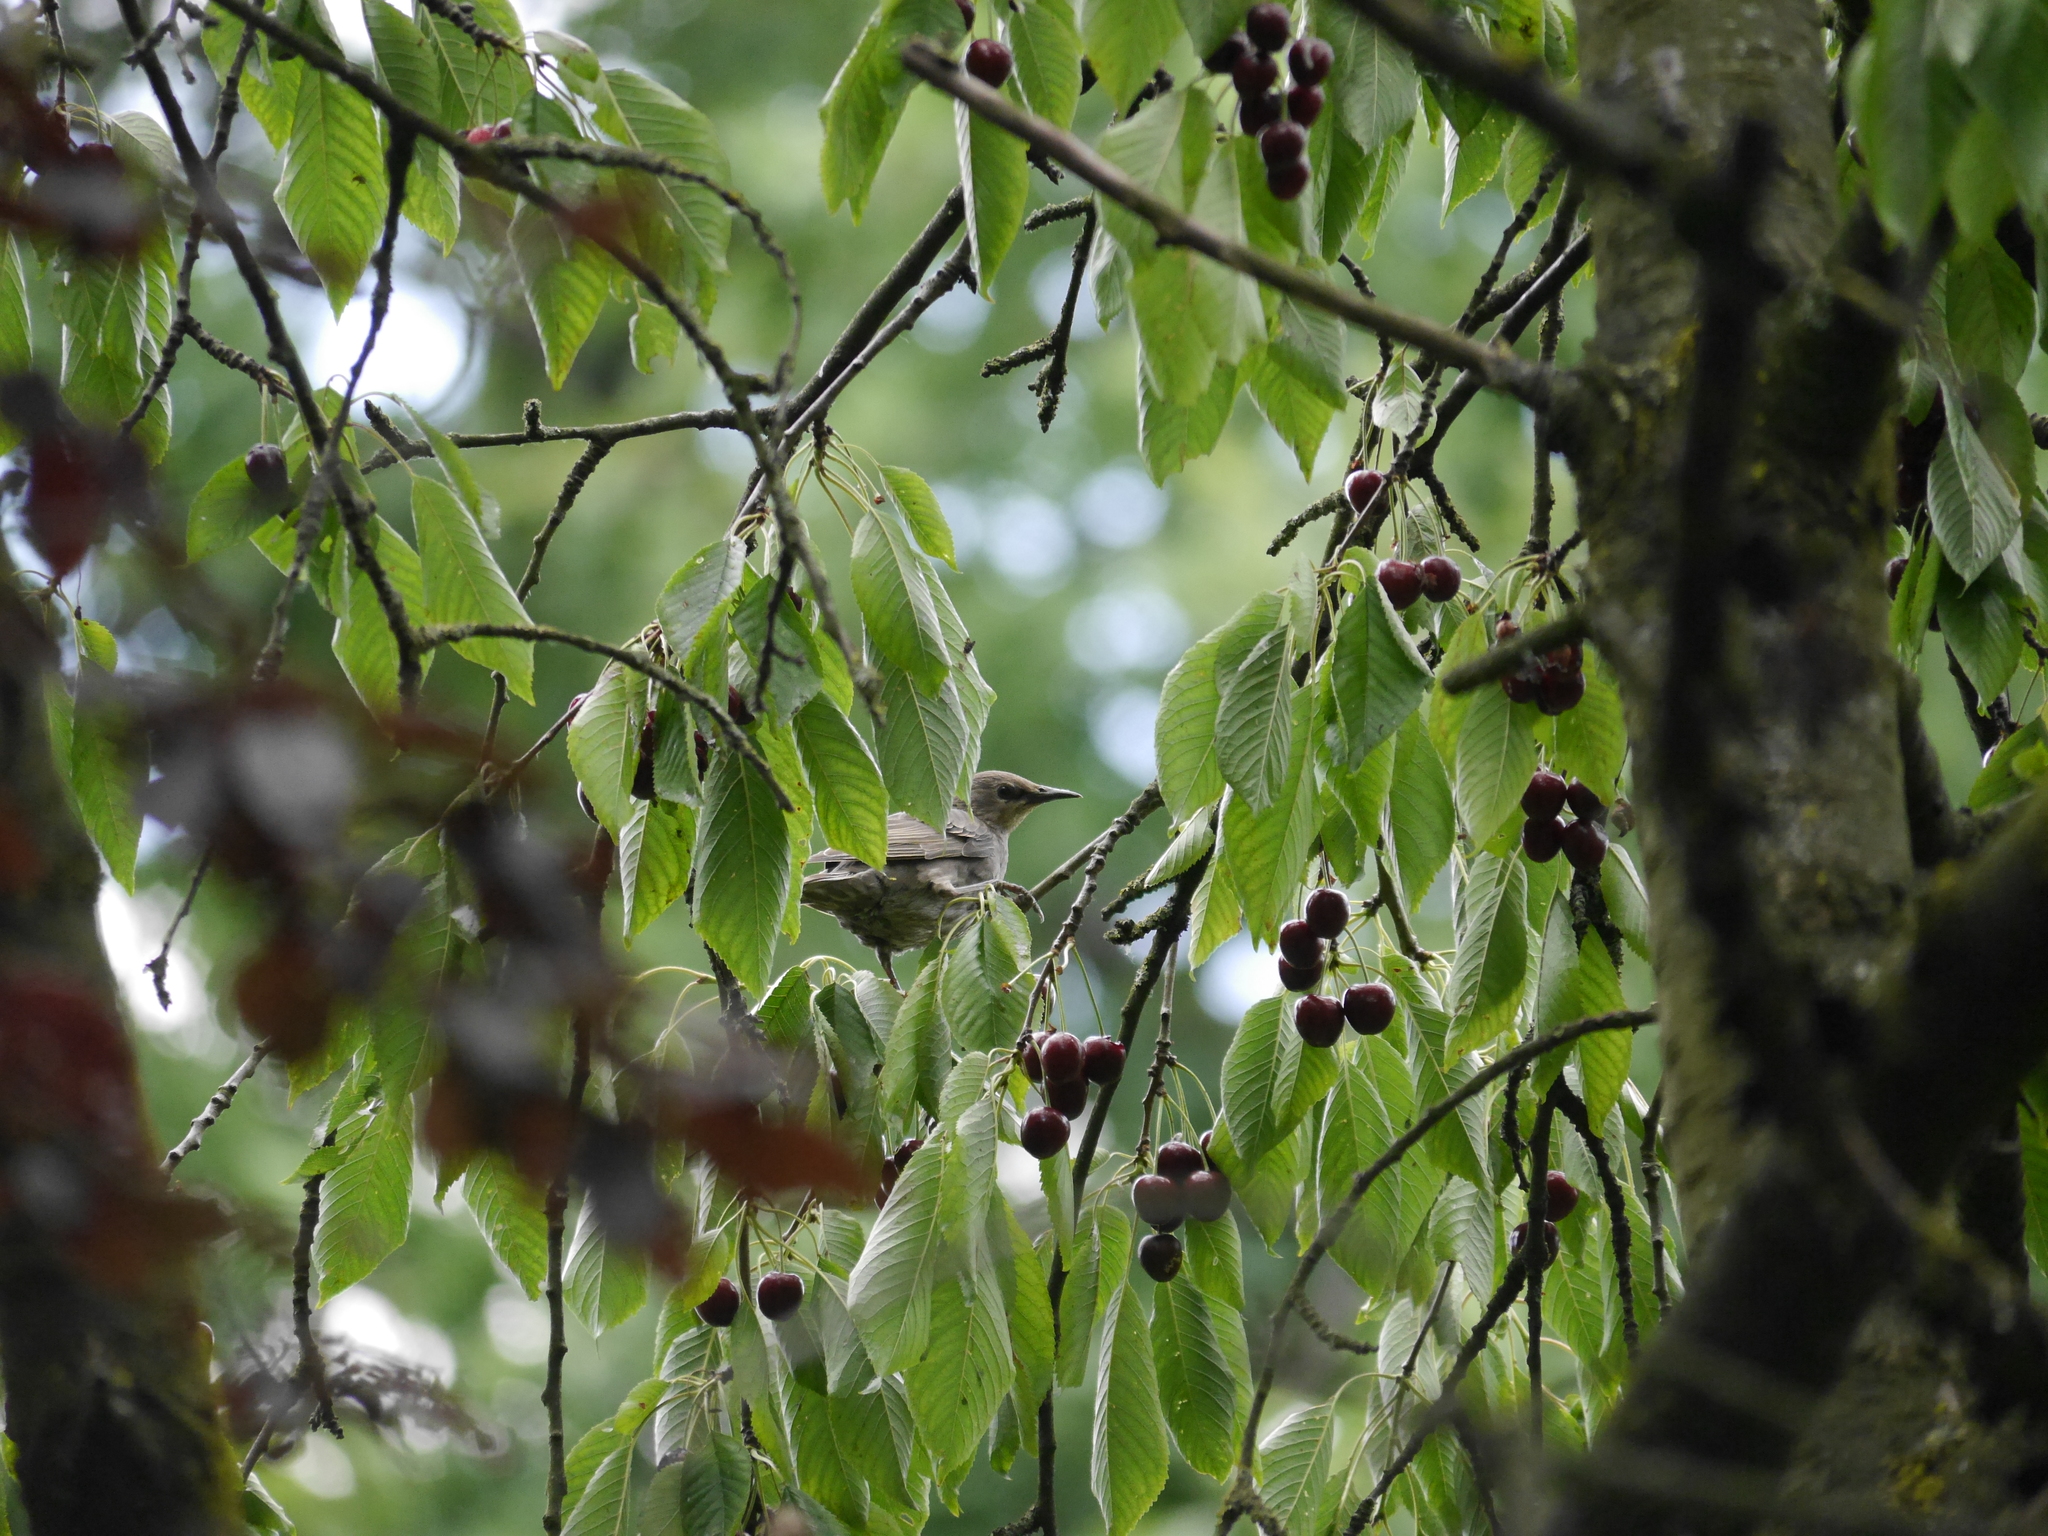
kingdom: Animalia
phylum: Chordata
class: Aves
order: Passeriformes
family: Sturnidae
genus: Sturnus
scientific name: Sturnus vulgaris
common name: Common starling
